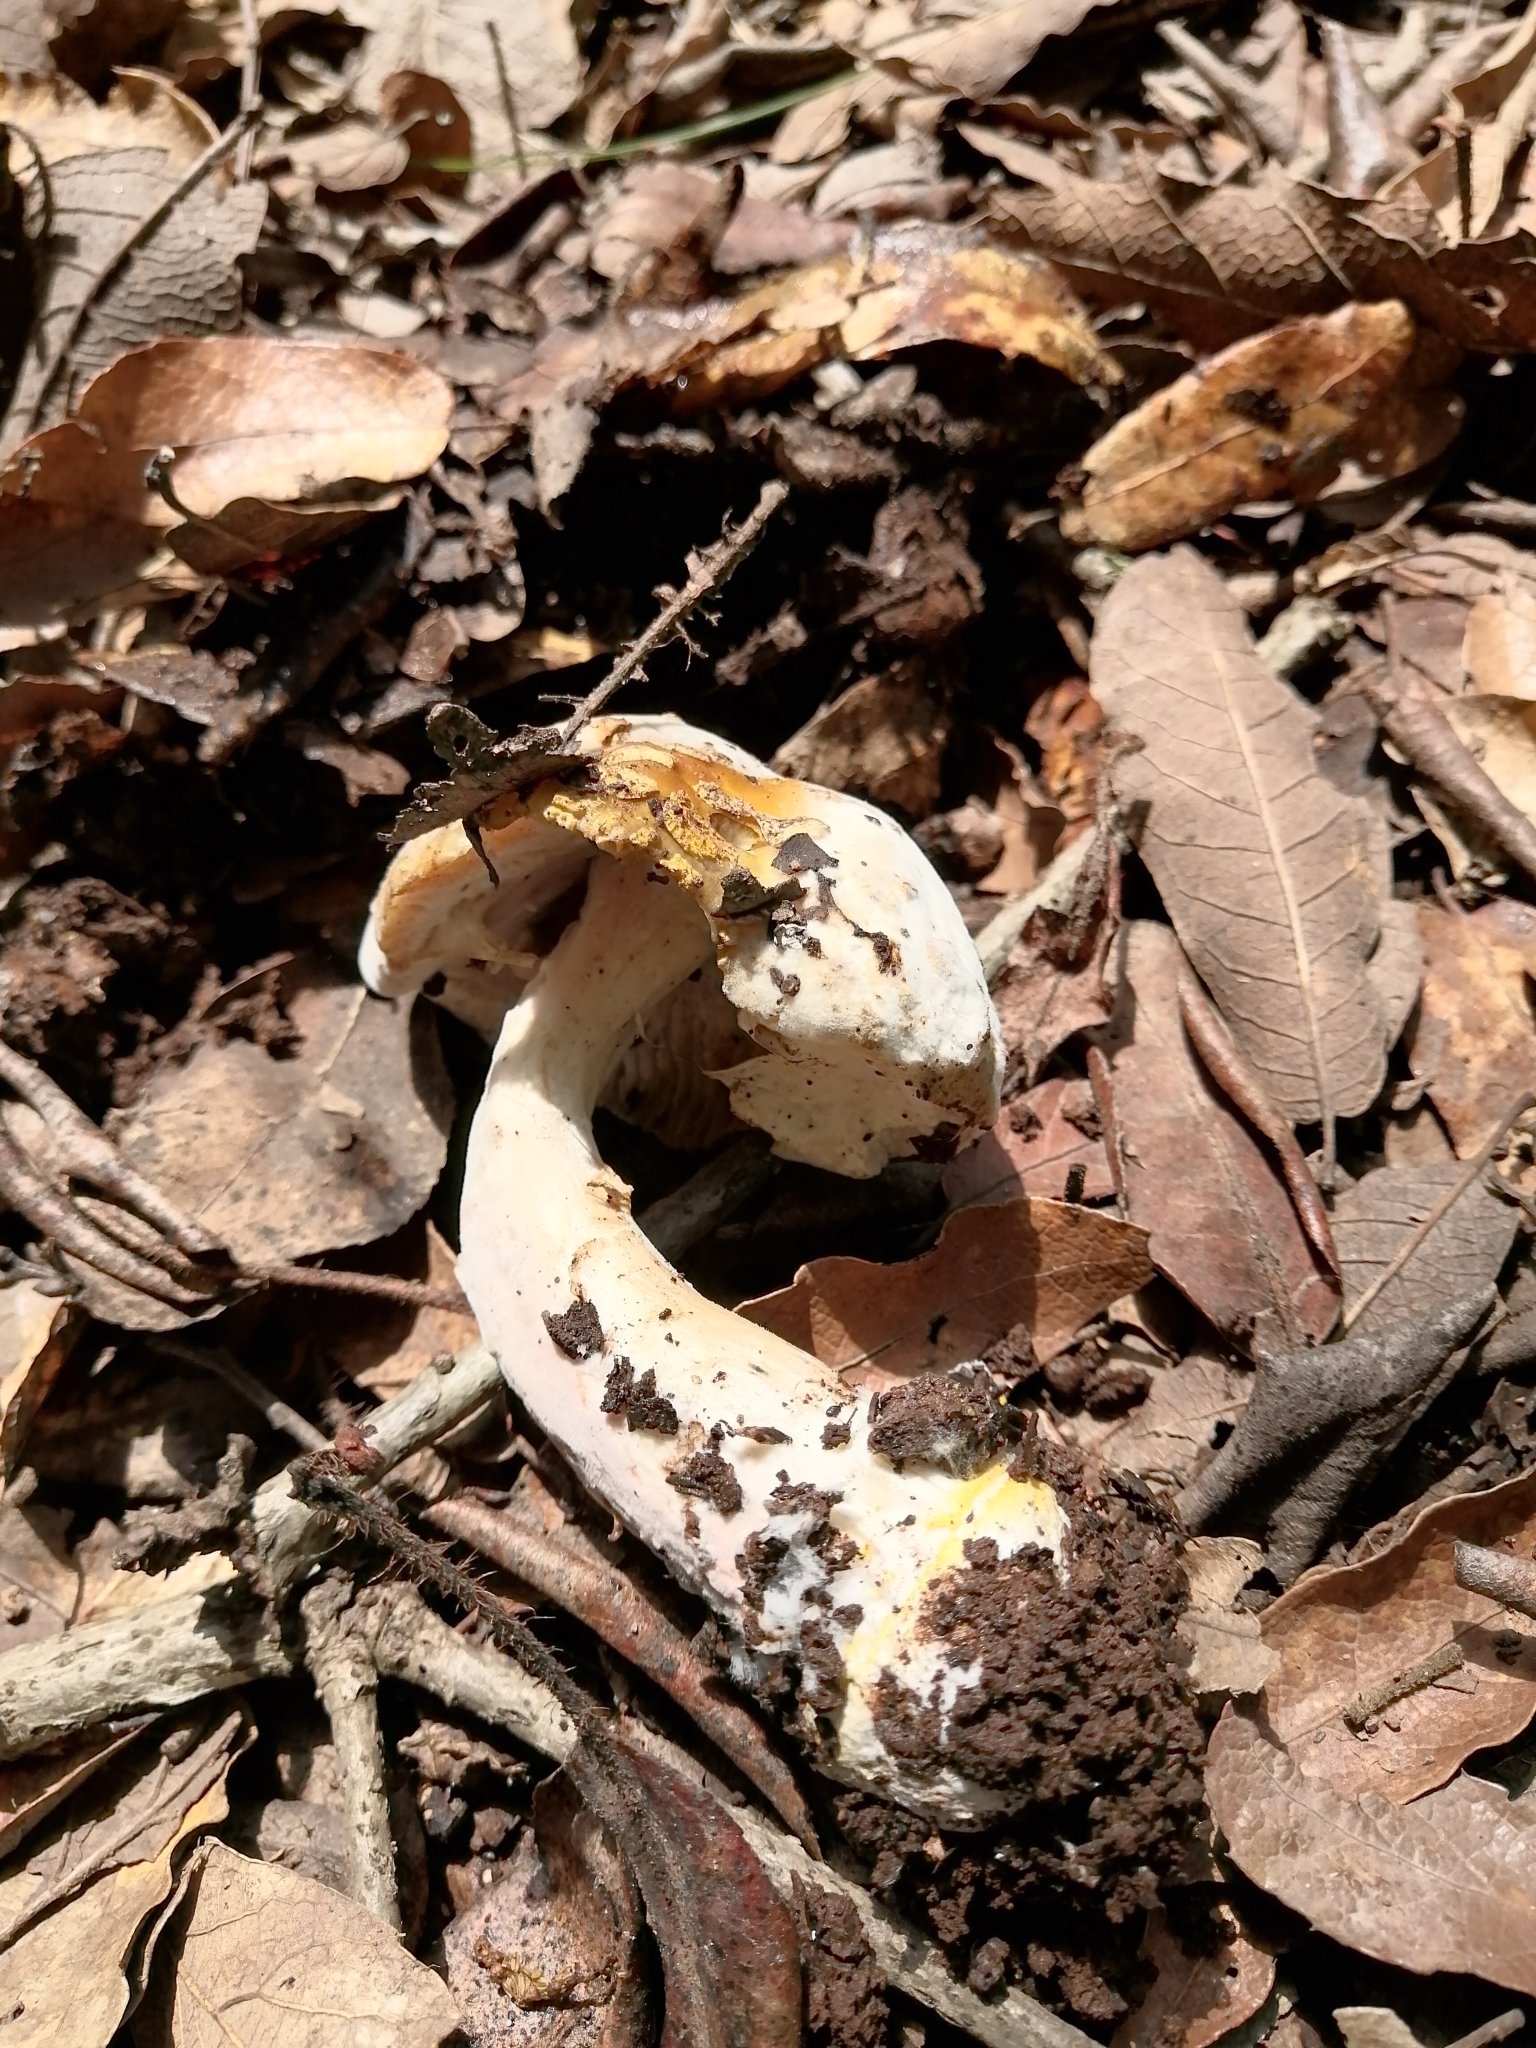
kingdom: Fungi
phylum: Ascomycota
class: Sordariomycetes
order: Hypocreales
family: Hypocreaceae
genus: Hypomyces
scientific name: Hypomyces chrysospermus
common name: Bolete mould
